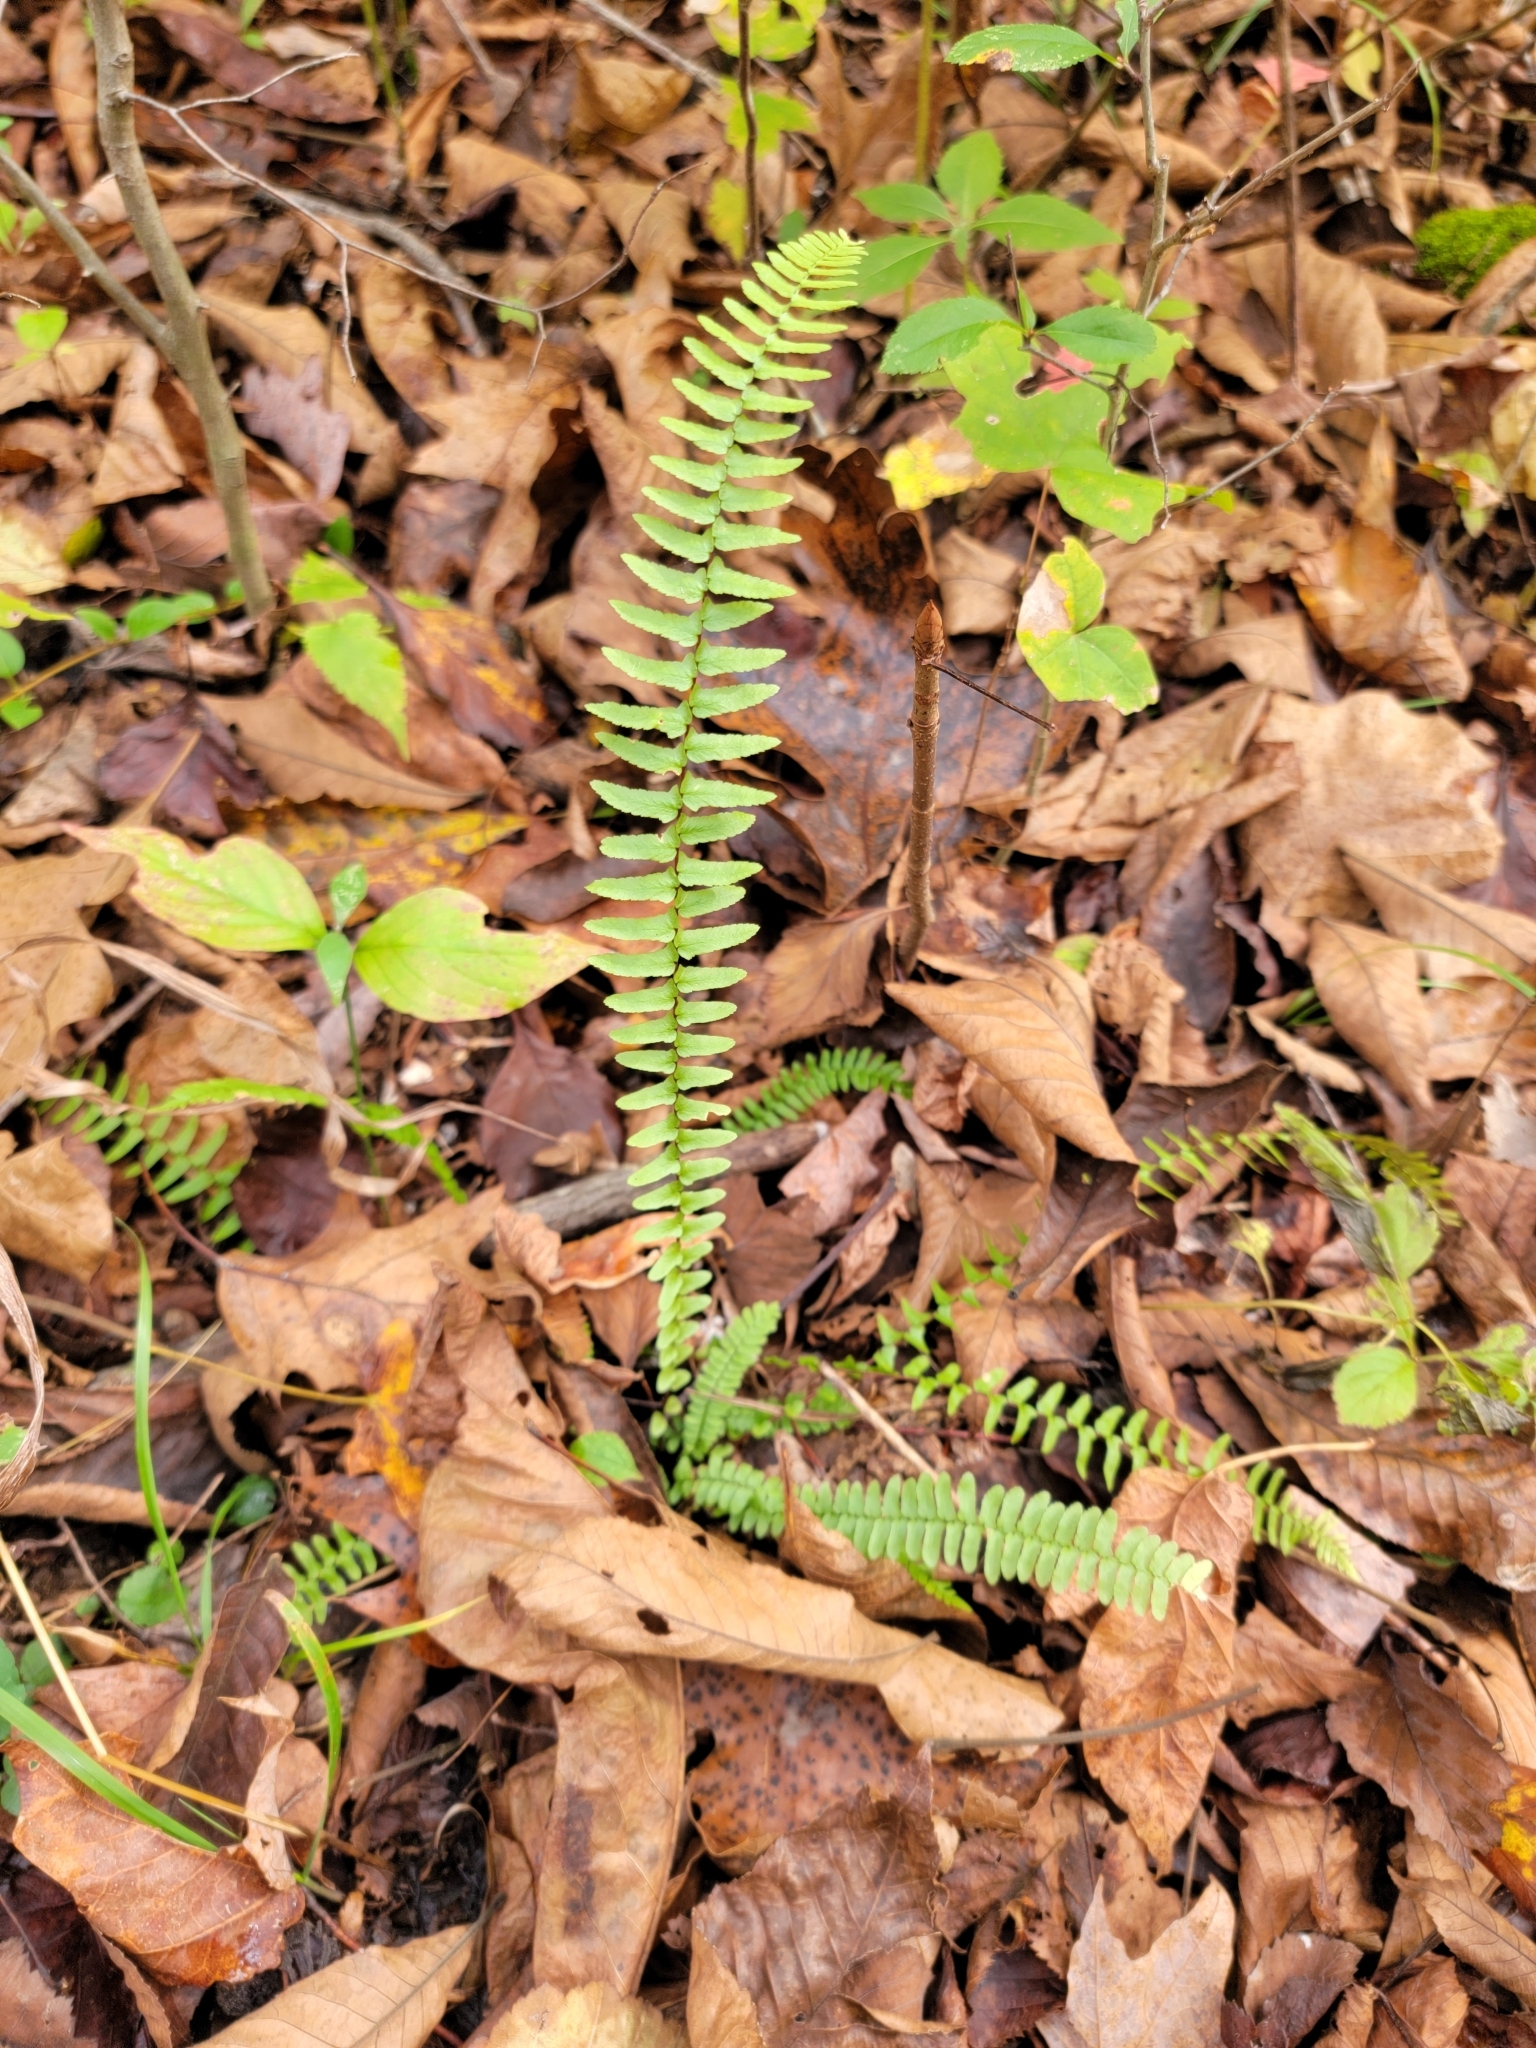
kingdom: Plantae
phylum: Tracheophyta
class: Polypodiopsida
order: Polypodiales
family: Aspleniaceae
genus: Asplenium
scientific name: Asplenium platyneuron
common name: Ebony spleenwort
